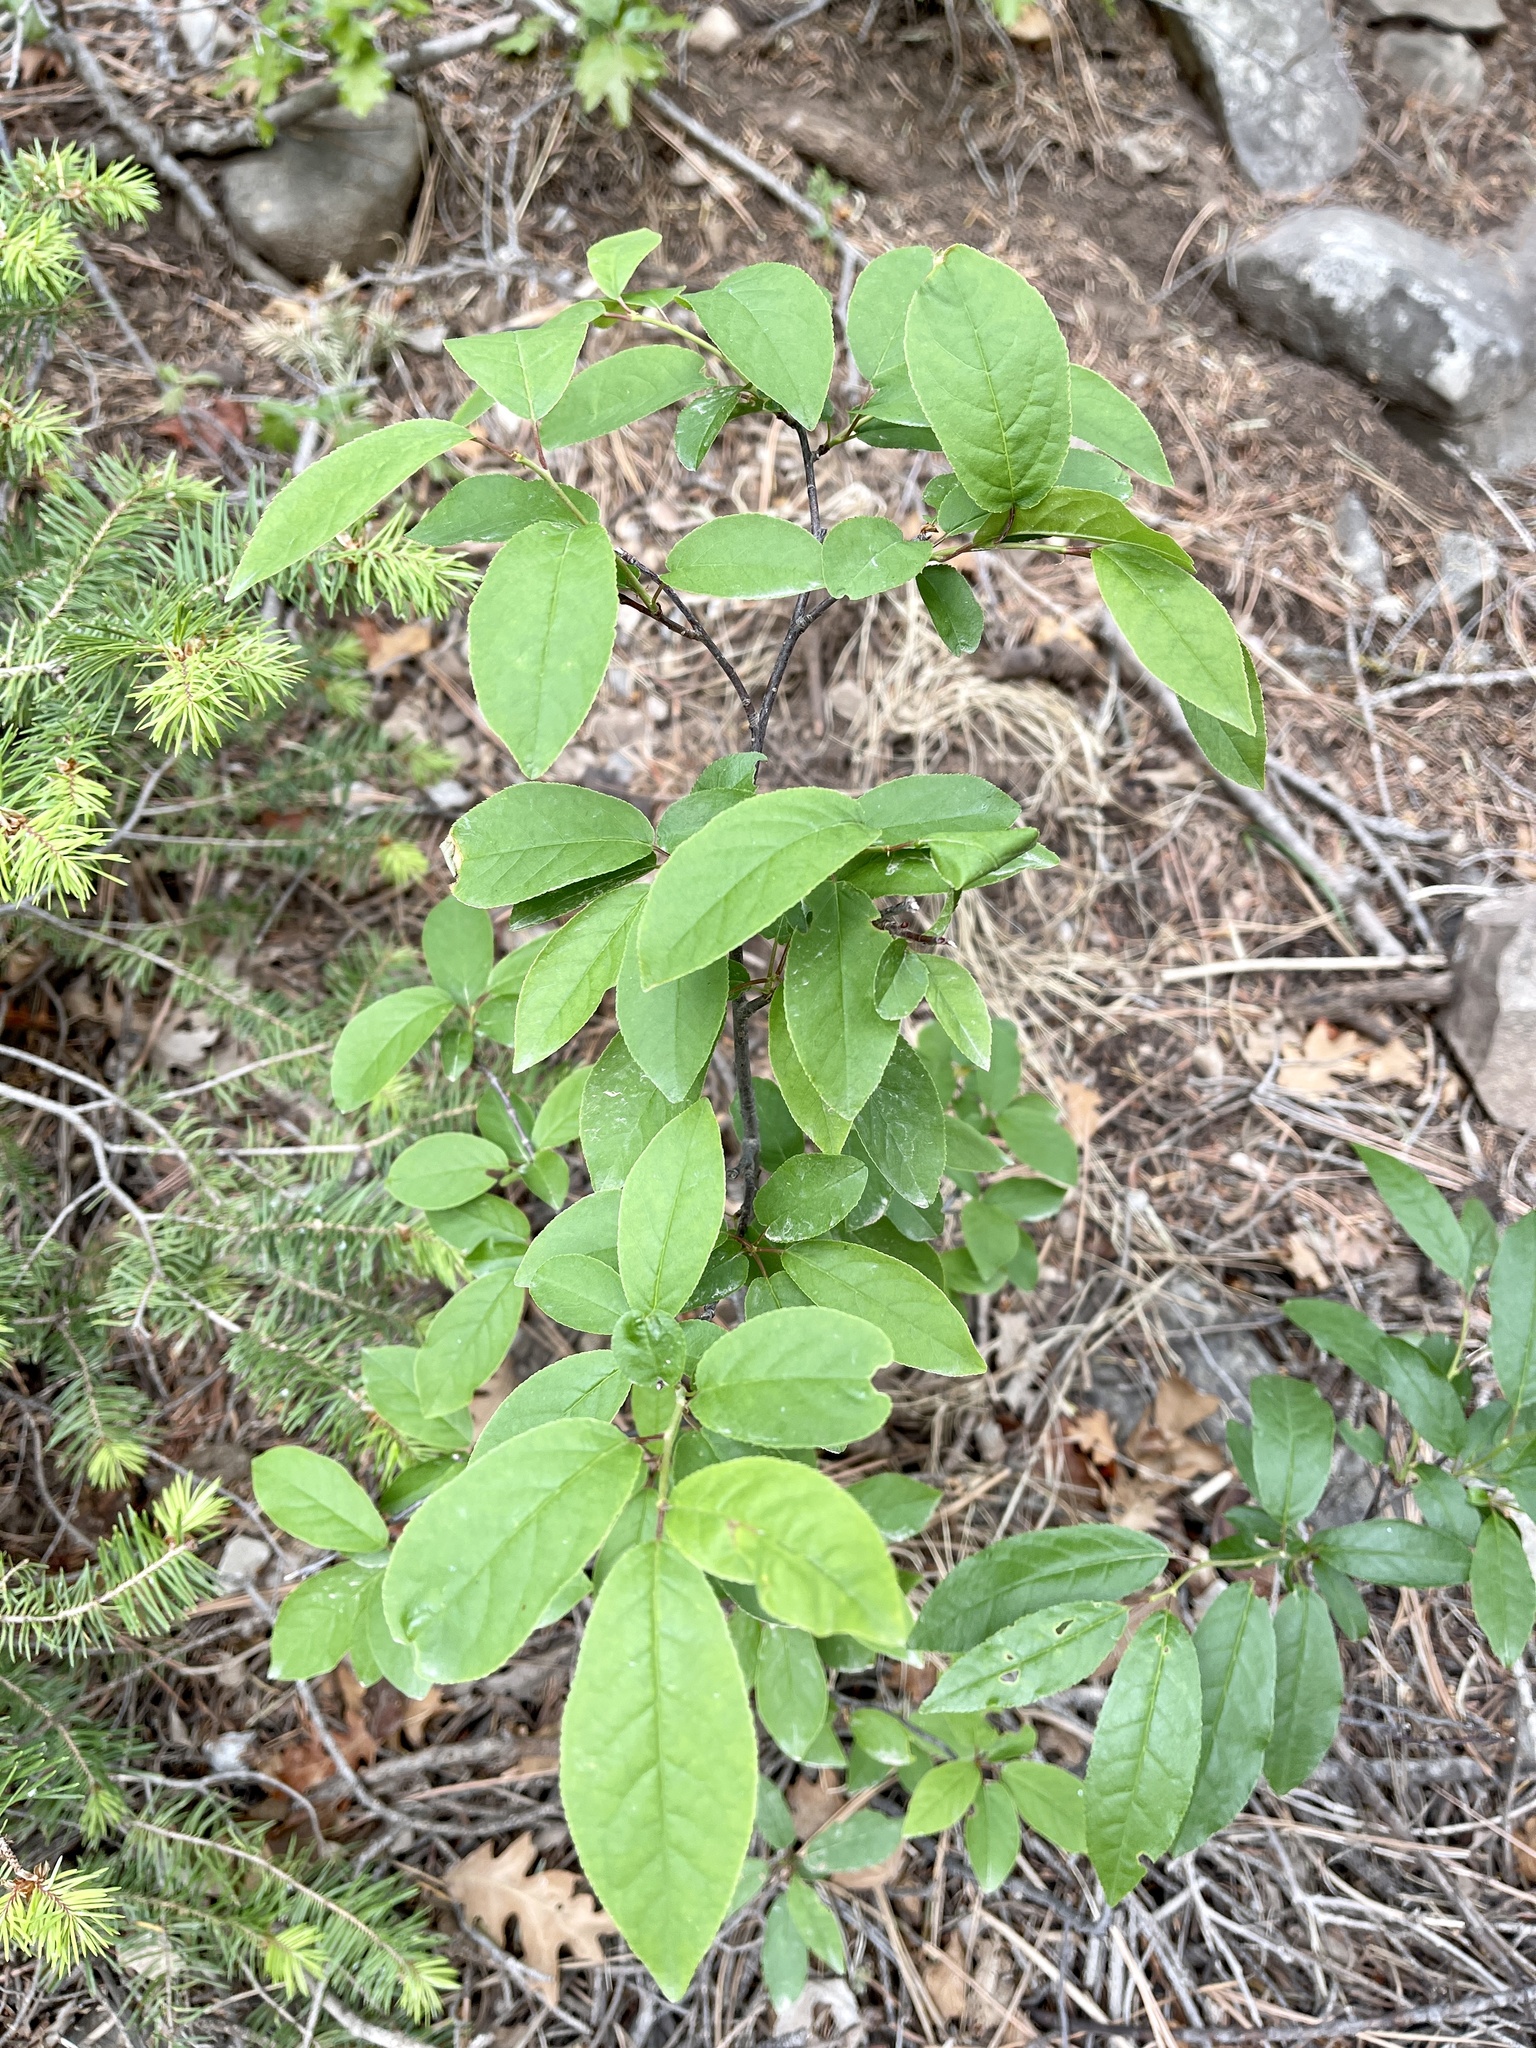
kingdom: Plantae
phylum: Tracheophyta
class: Magnoliopsida
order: Rosales
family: Rosaceae
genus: Prunus
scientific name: Prunus virginiana
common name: Chokecherry
